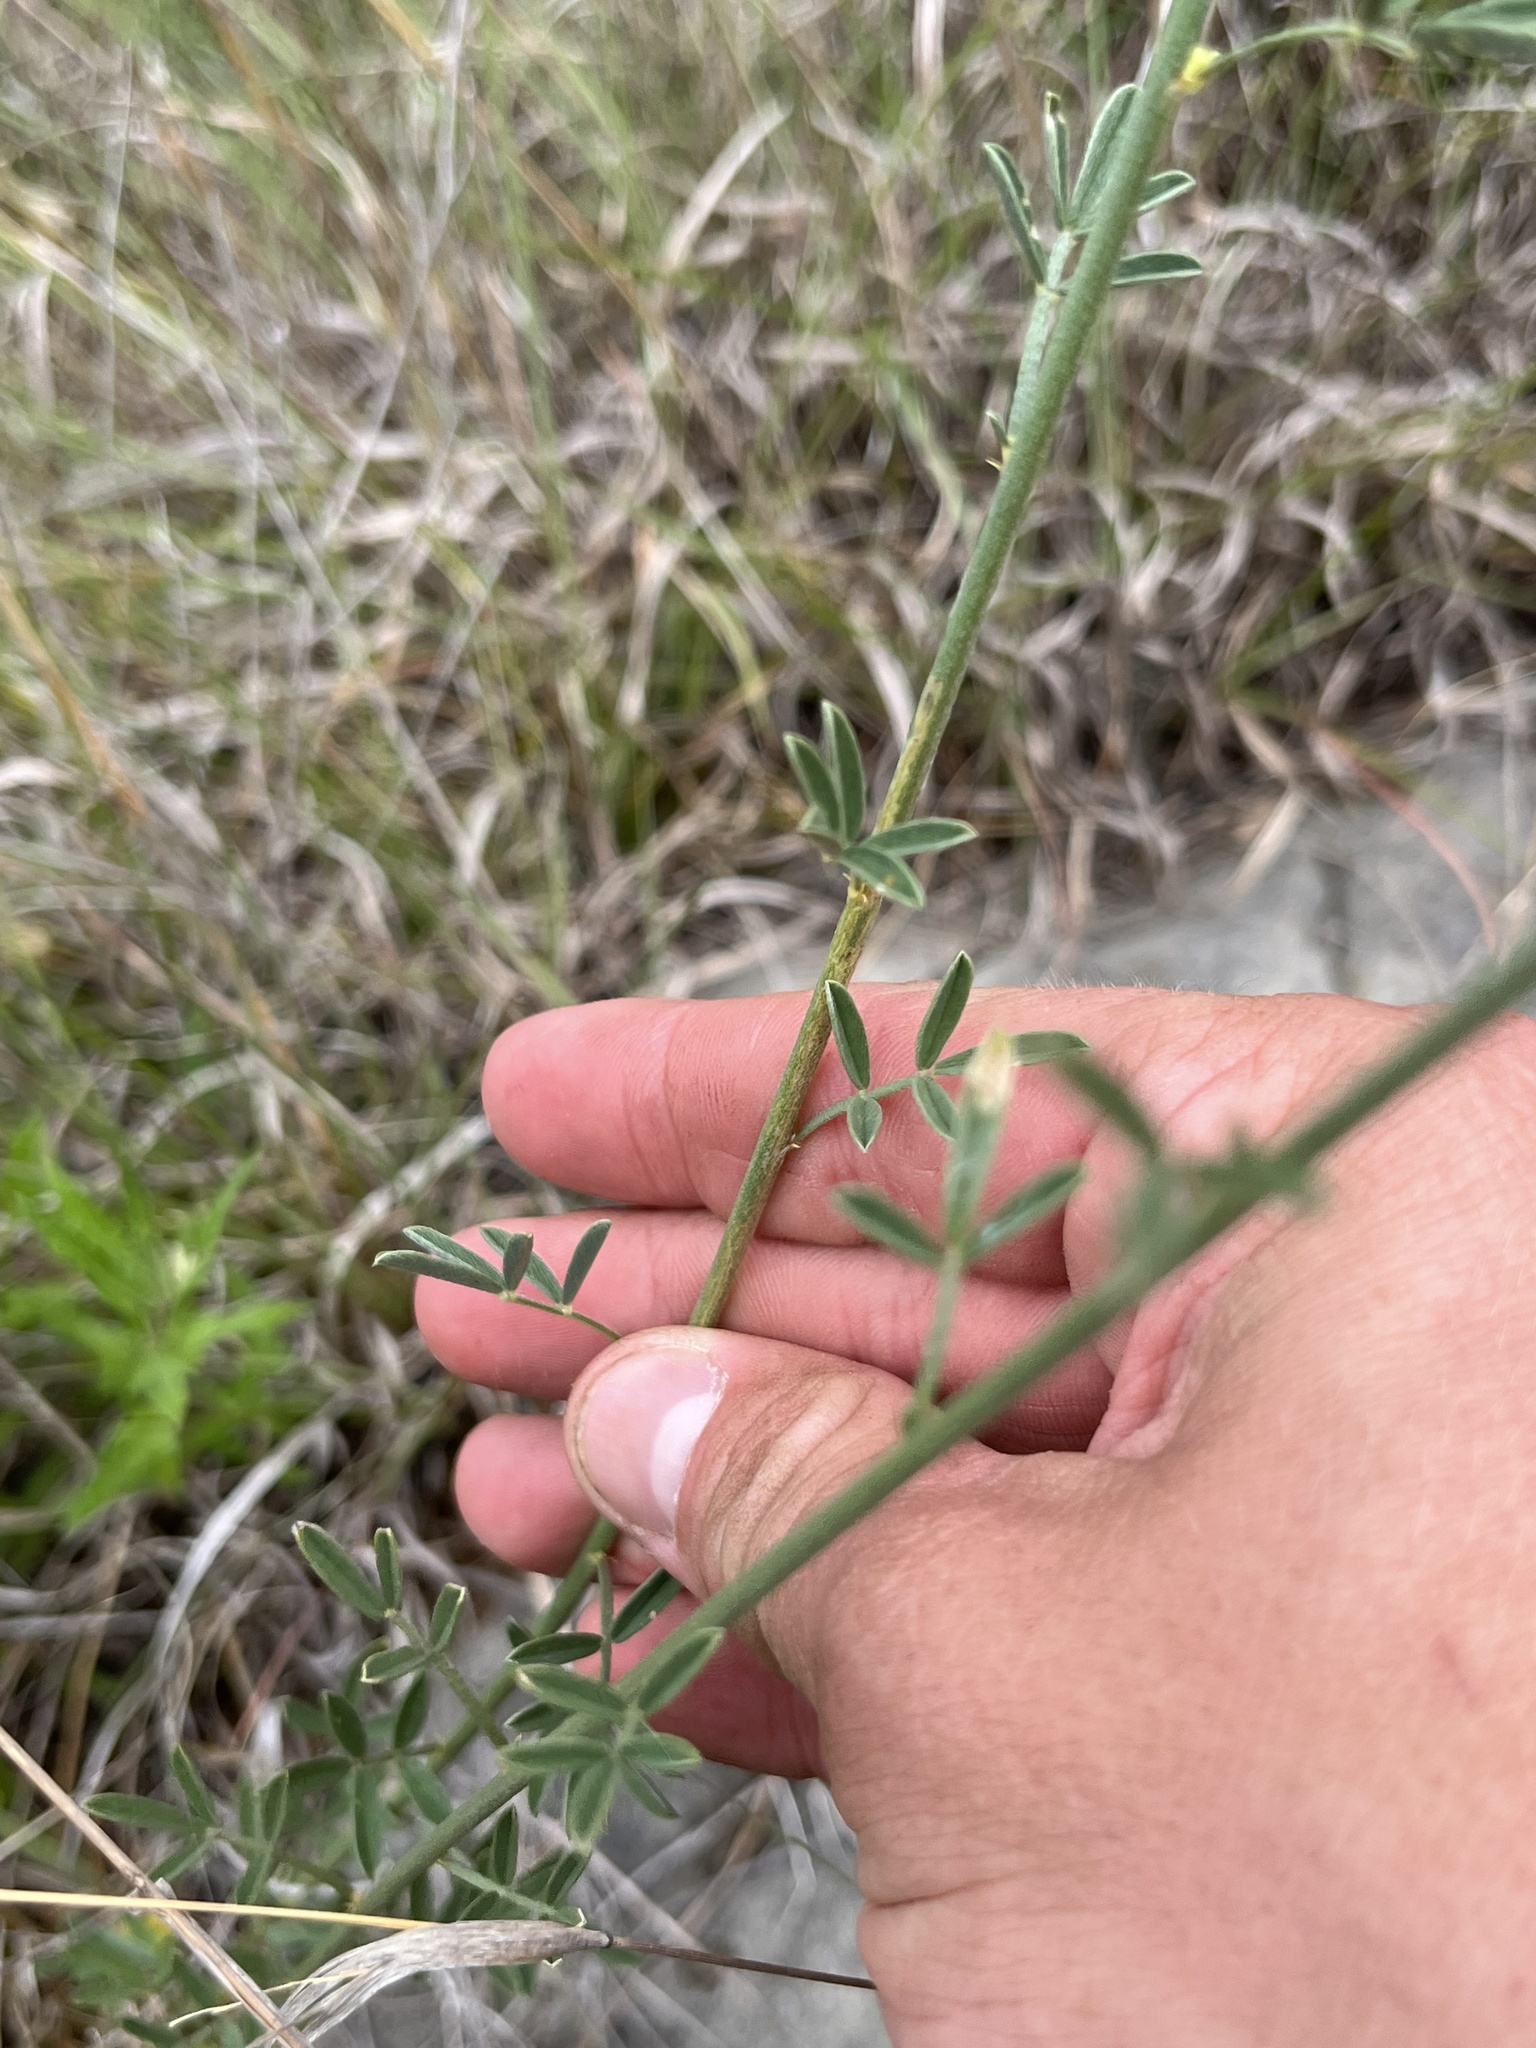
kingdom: Plantae
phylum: Tracheophyta
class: Magnoliopsida
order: Fabales
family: Fabaceae
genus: Dalea
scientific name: Dalea aurea
